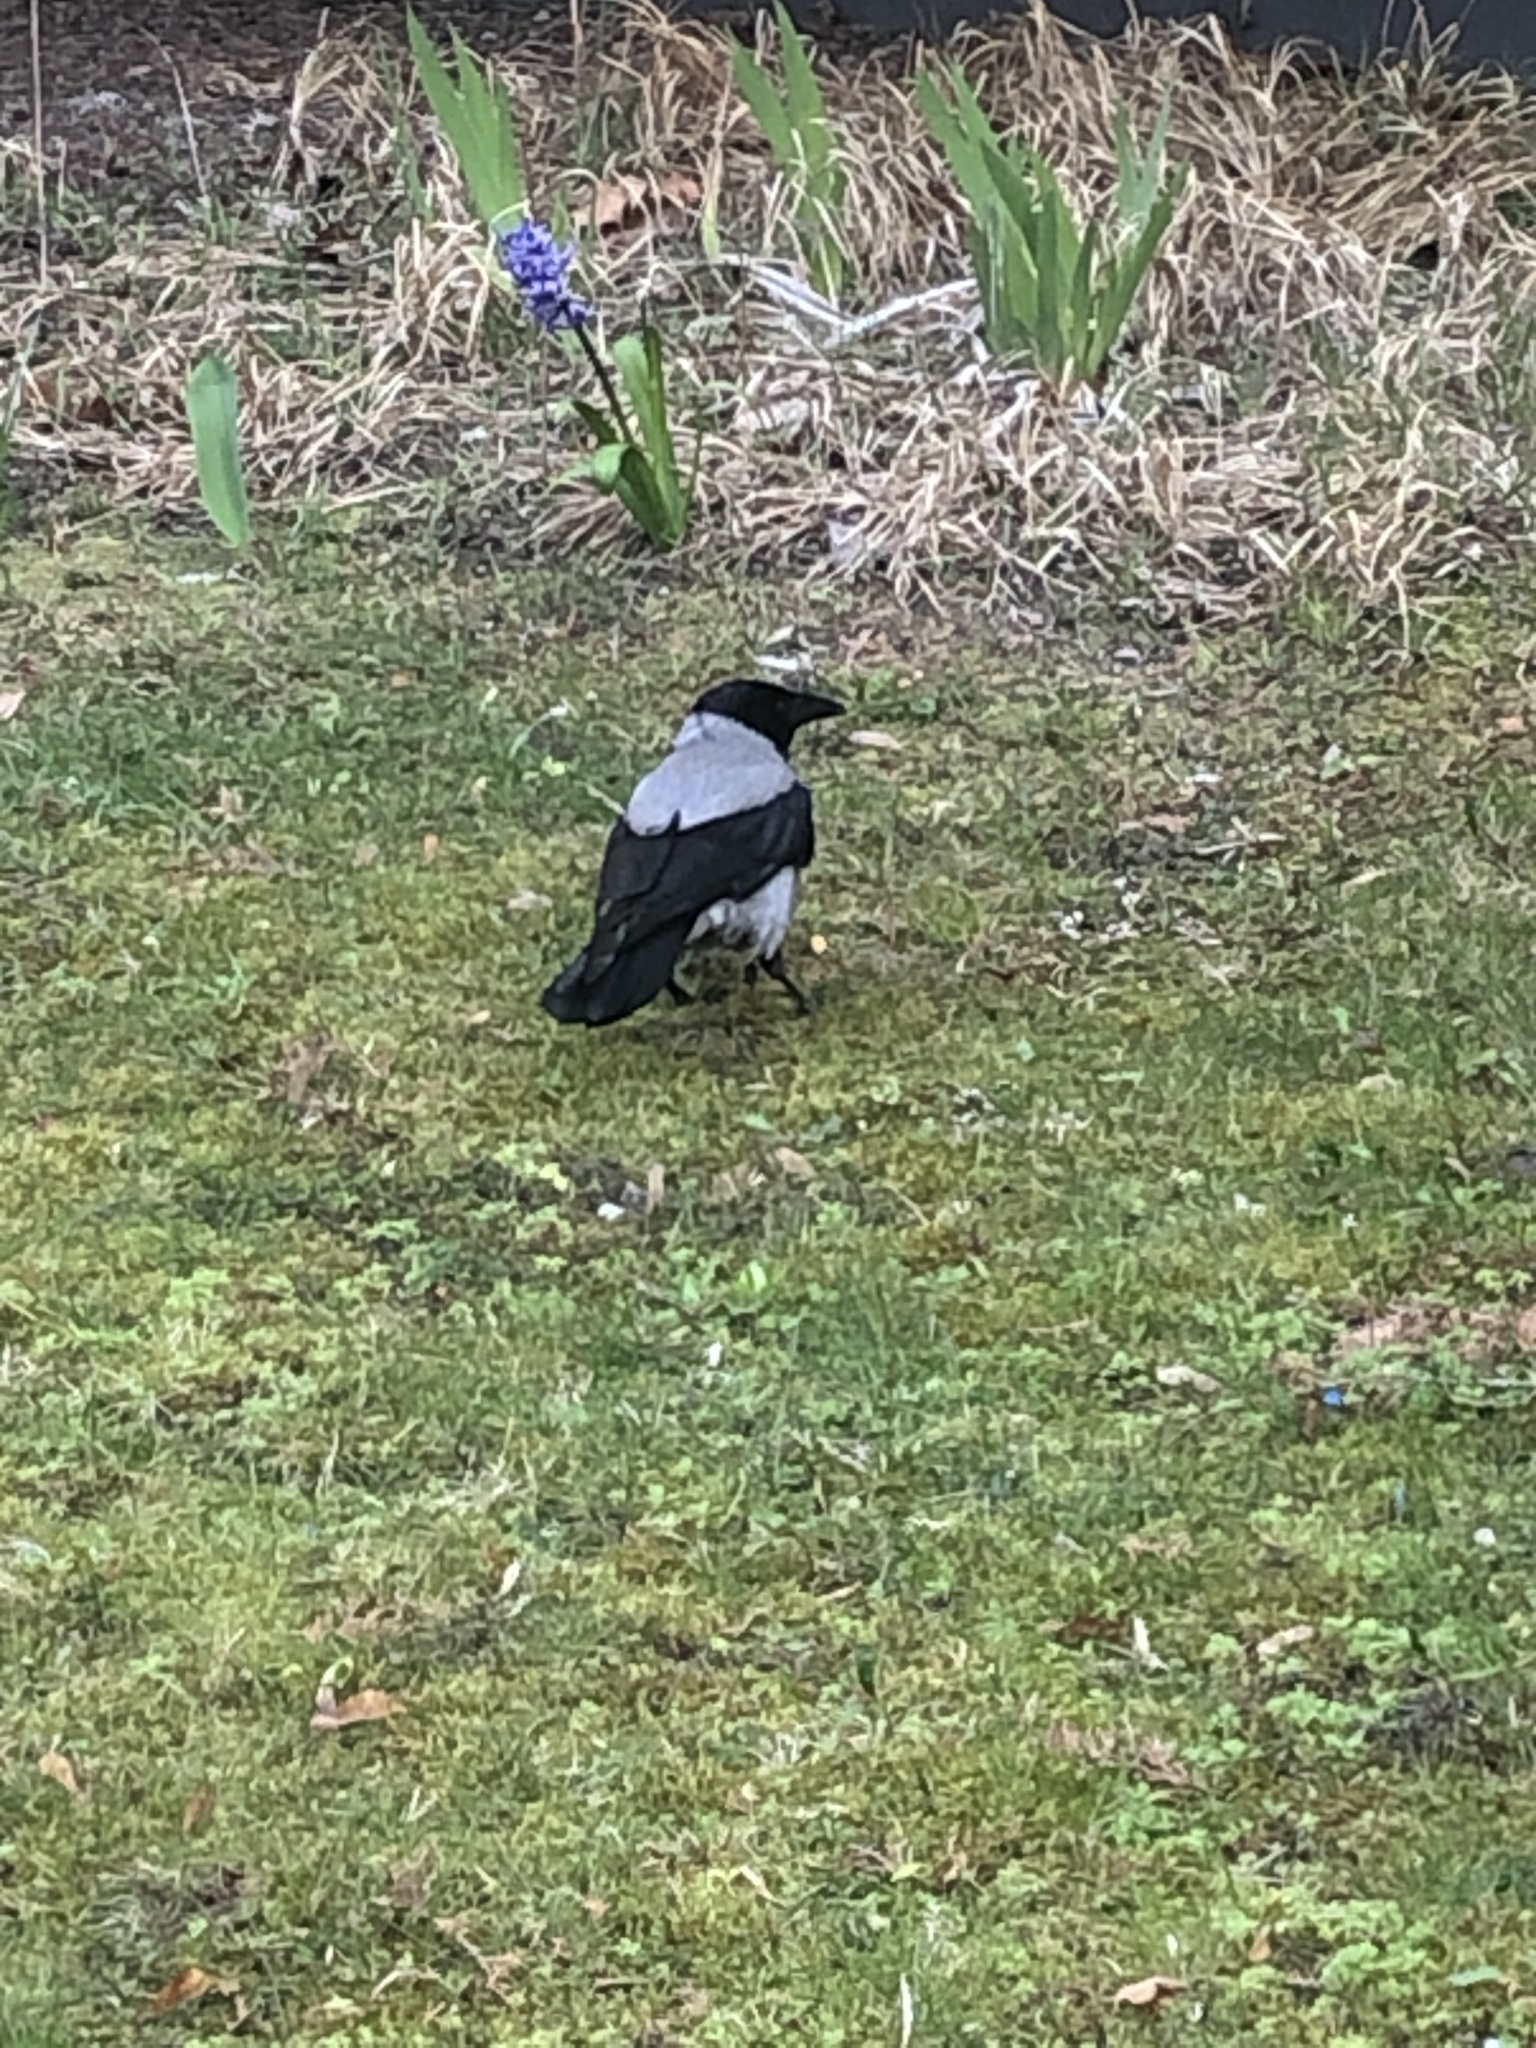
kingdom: Animalia
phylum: Chordata
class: Aves
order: Passeriformes
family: Corvidae
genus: Corvus
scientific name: Corvus cornix
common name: Hooded crow
